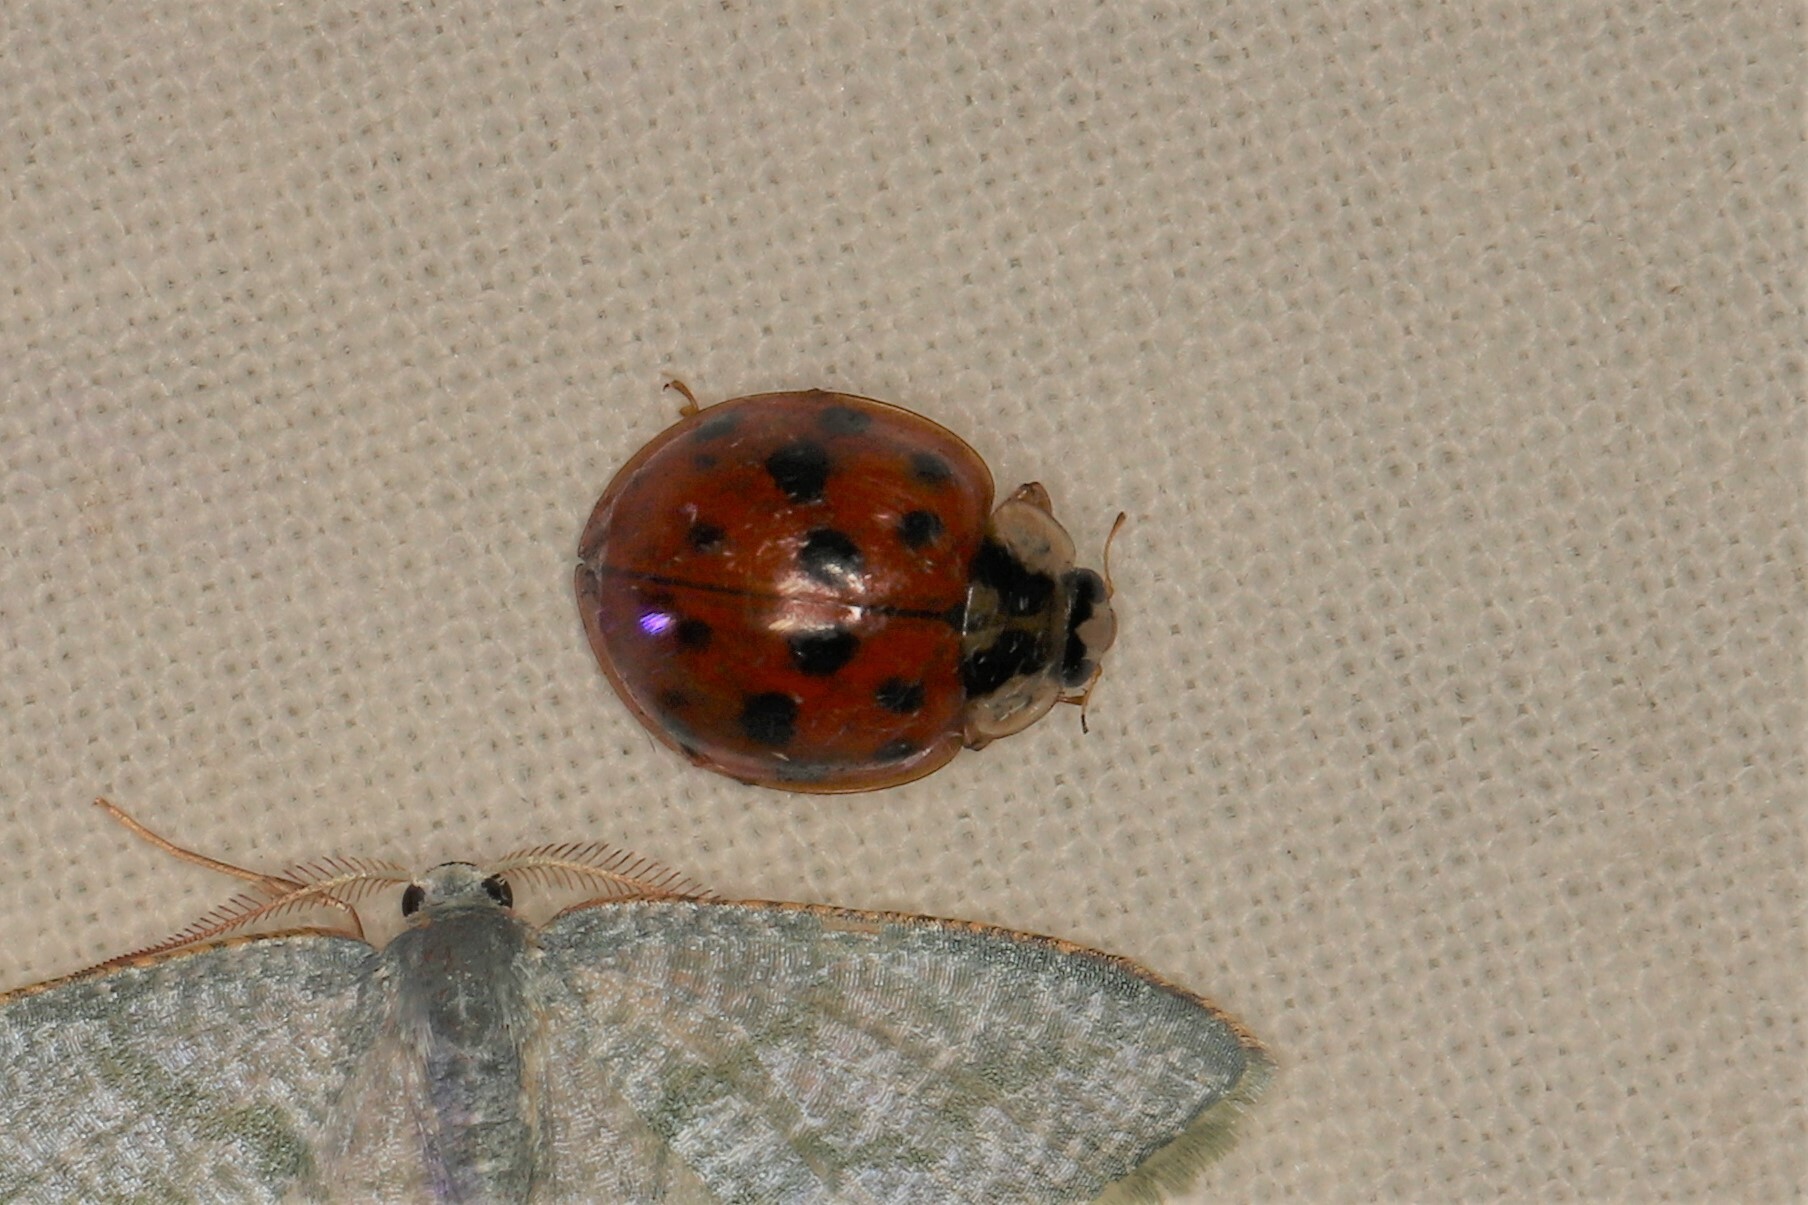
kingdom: Animalia
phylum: Arthropoda
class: Insecta
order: Coleoptera
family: Coccinellidae
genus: Harmonia
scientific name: Harmonia axyridis
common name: Harlequin ladybird
